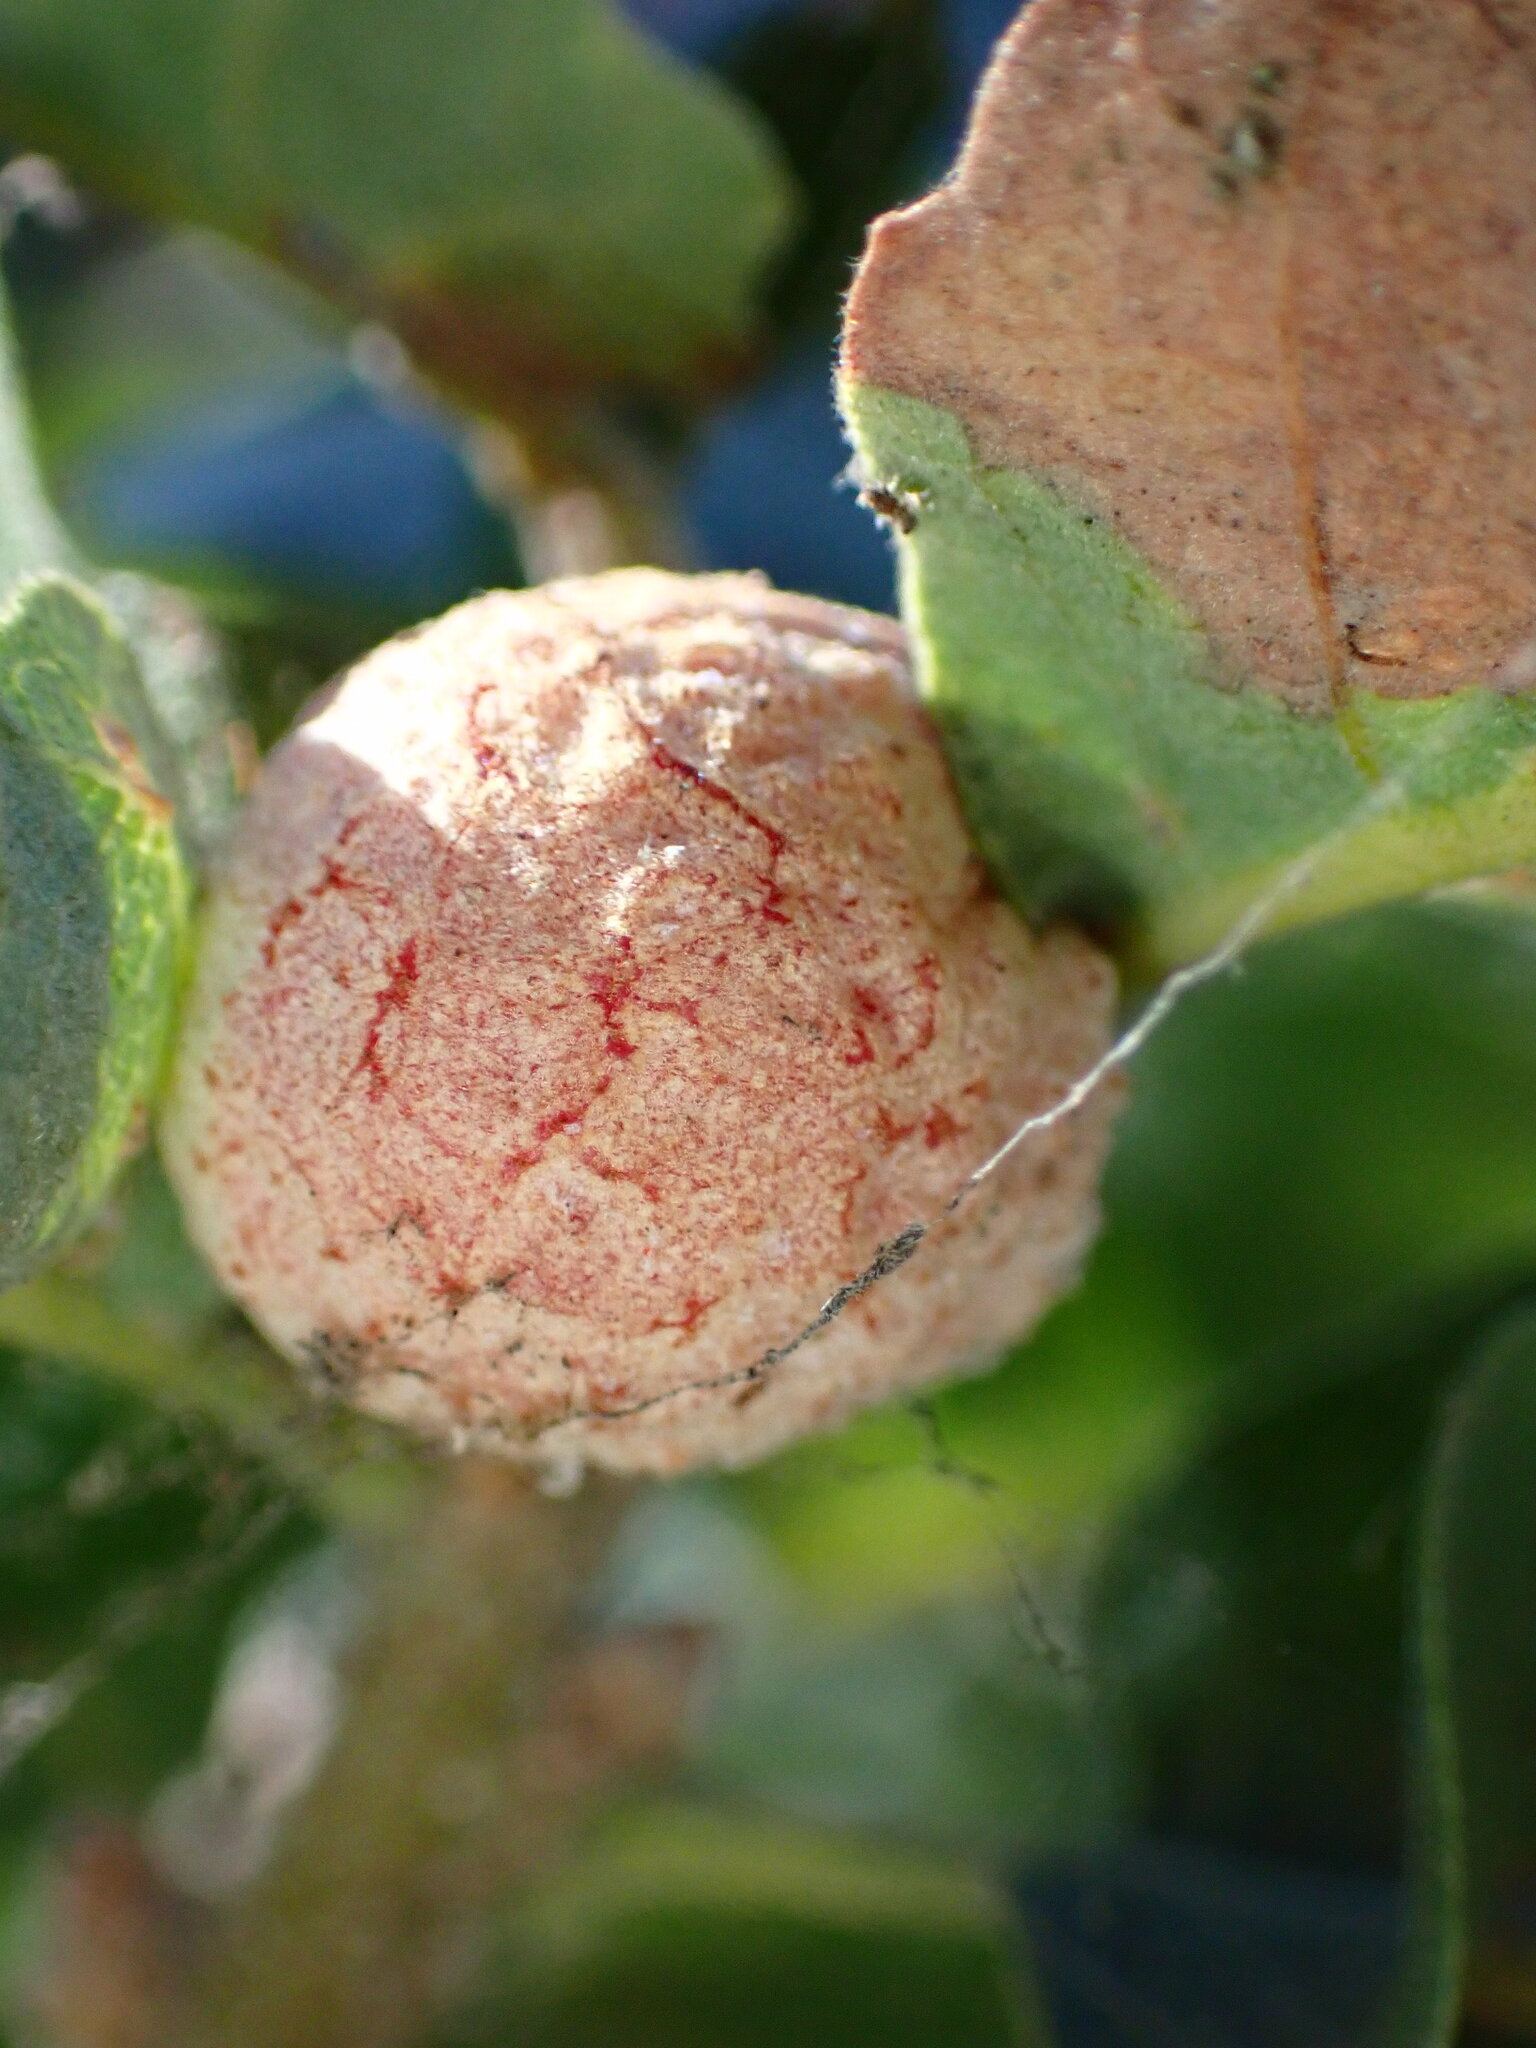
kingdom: Animalia
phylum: Arthropoda
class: Insecta
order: Hymenoptera
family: Cynipidae
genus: Cynips
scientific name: Cynips conspicua
